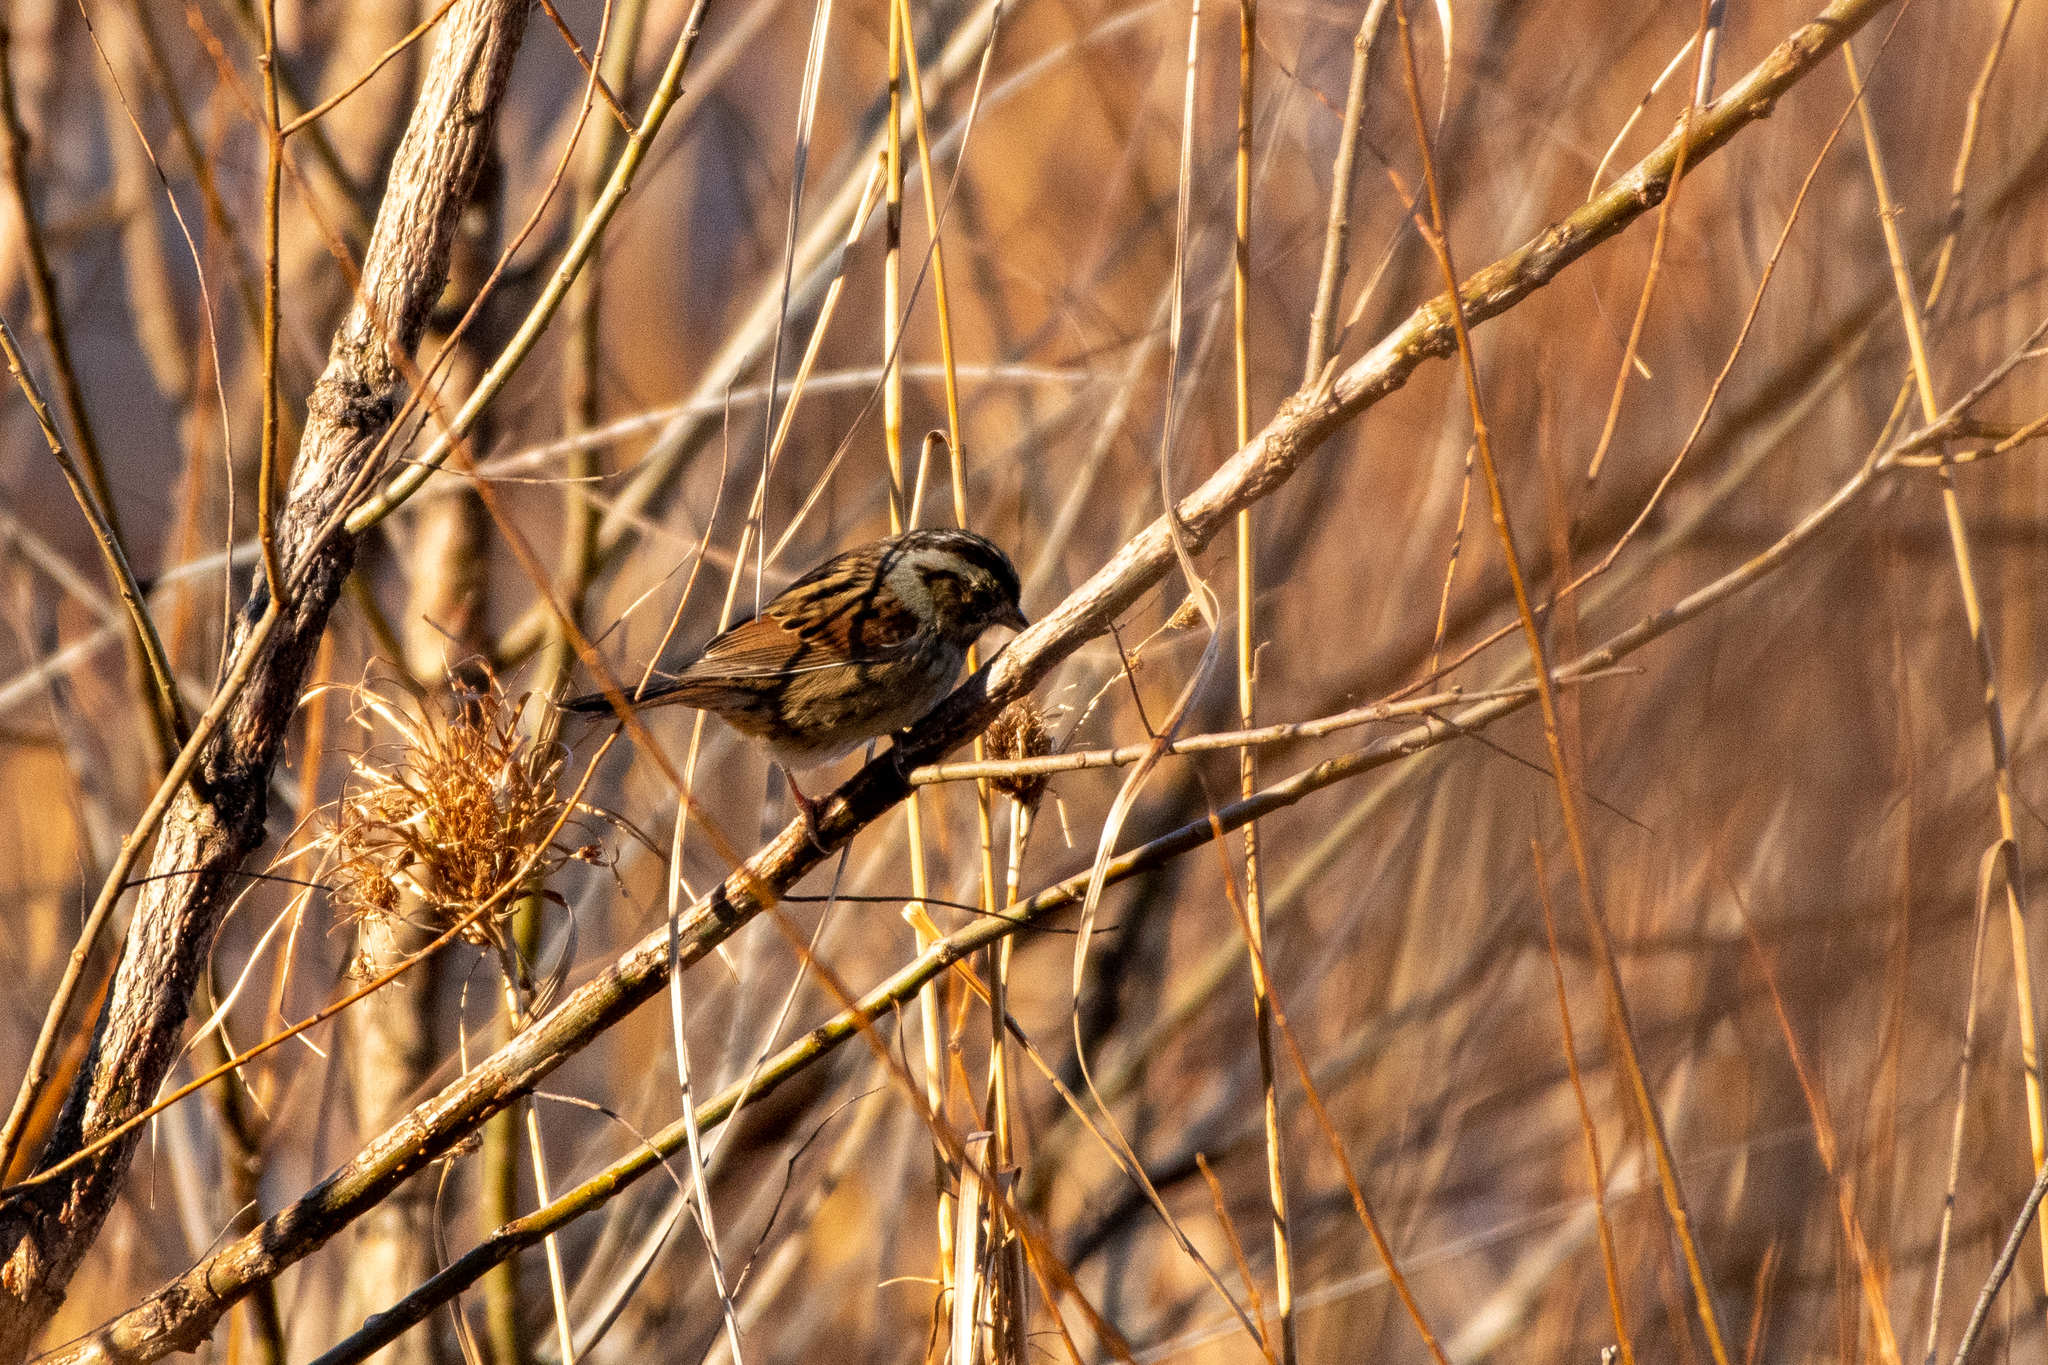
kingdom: Animalia
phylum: Chordata
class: Aves
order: Passeriformes
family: Passerellidae
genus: Melospiza
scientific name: Melospiza georgiana
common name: Swamp sparrow
